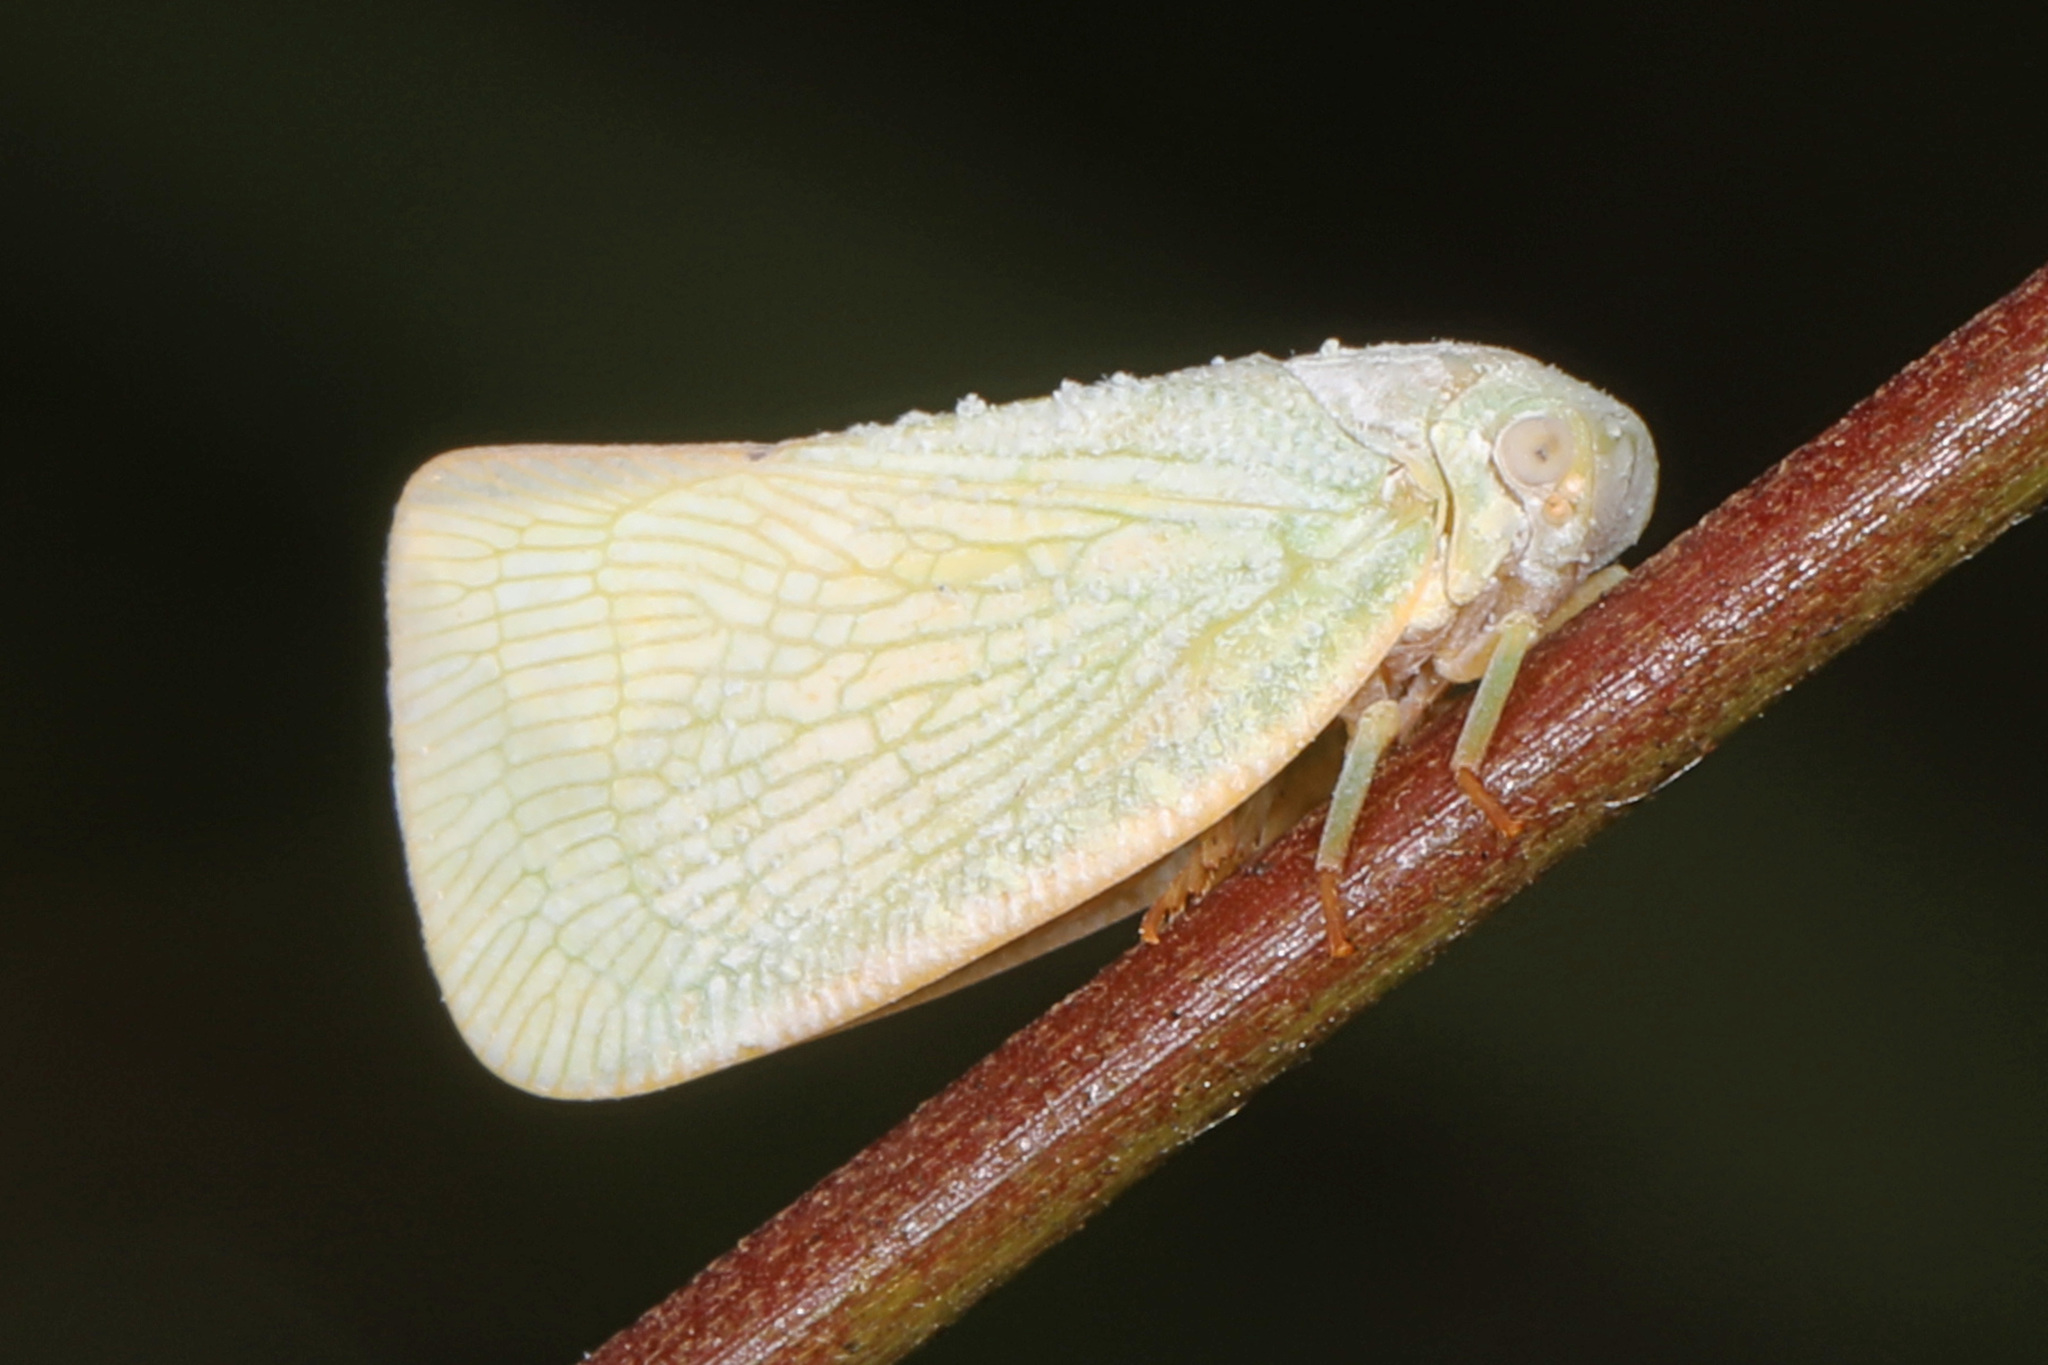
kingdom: Animalia
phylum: Arthropoda
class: Insecta
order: Hemiptera
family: Flatidae
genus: Flatormenis
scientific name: Flatormenis proxima
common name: Northern flatid planthopper
